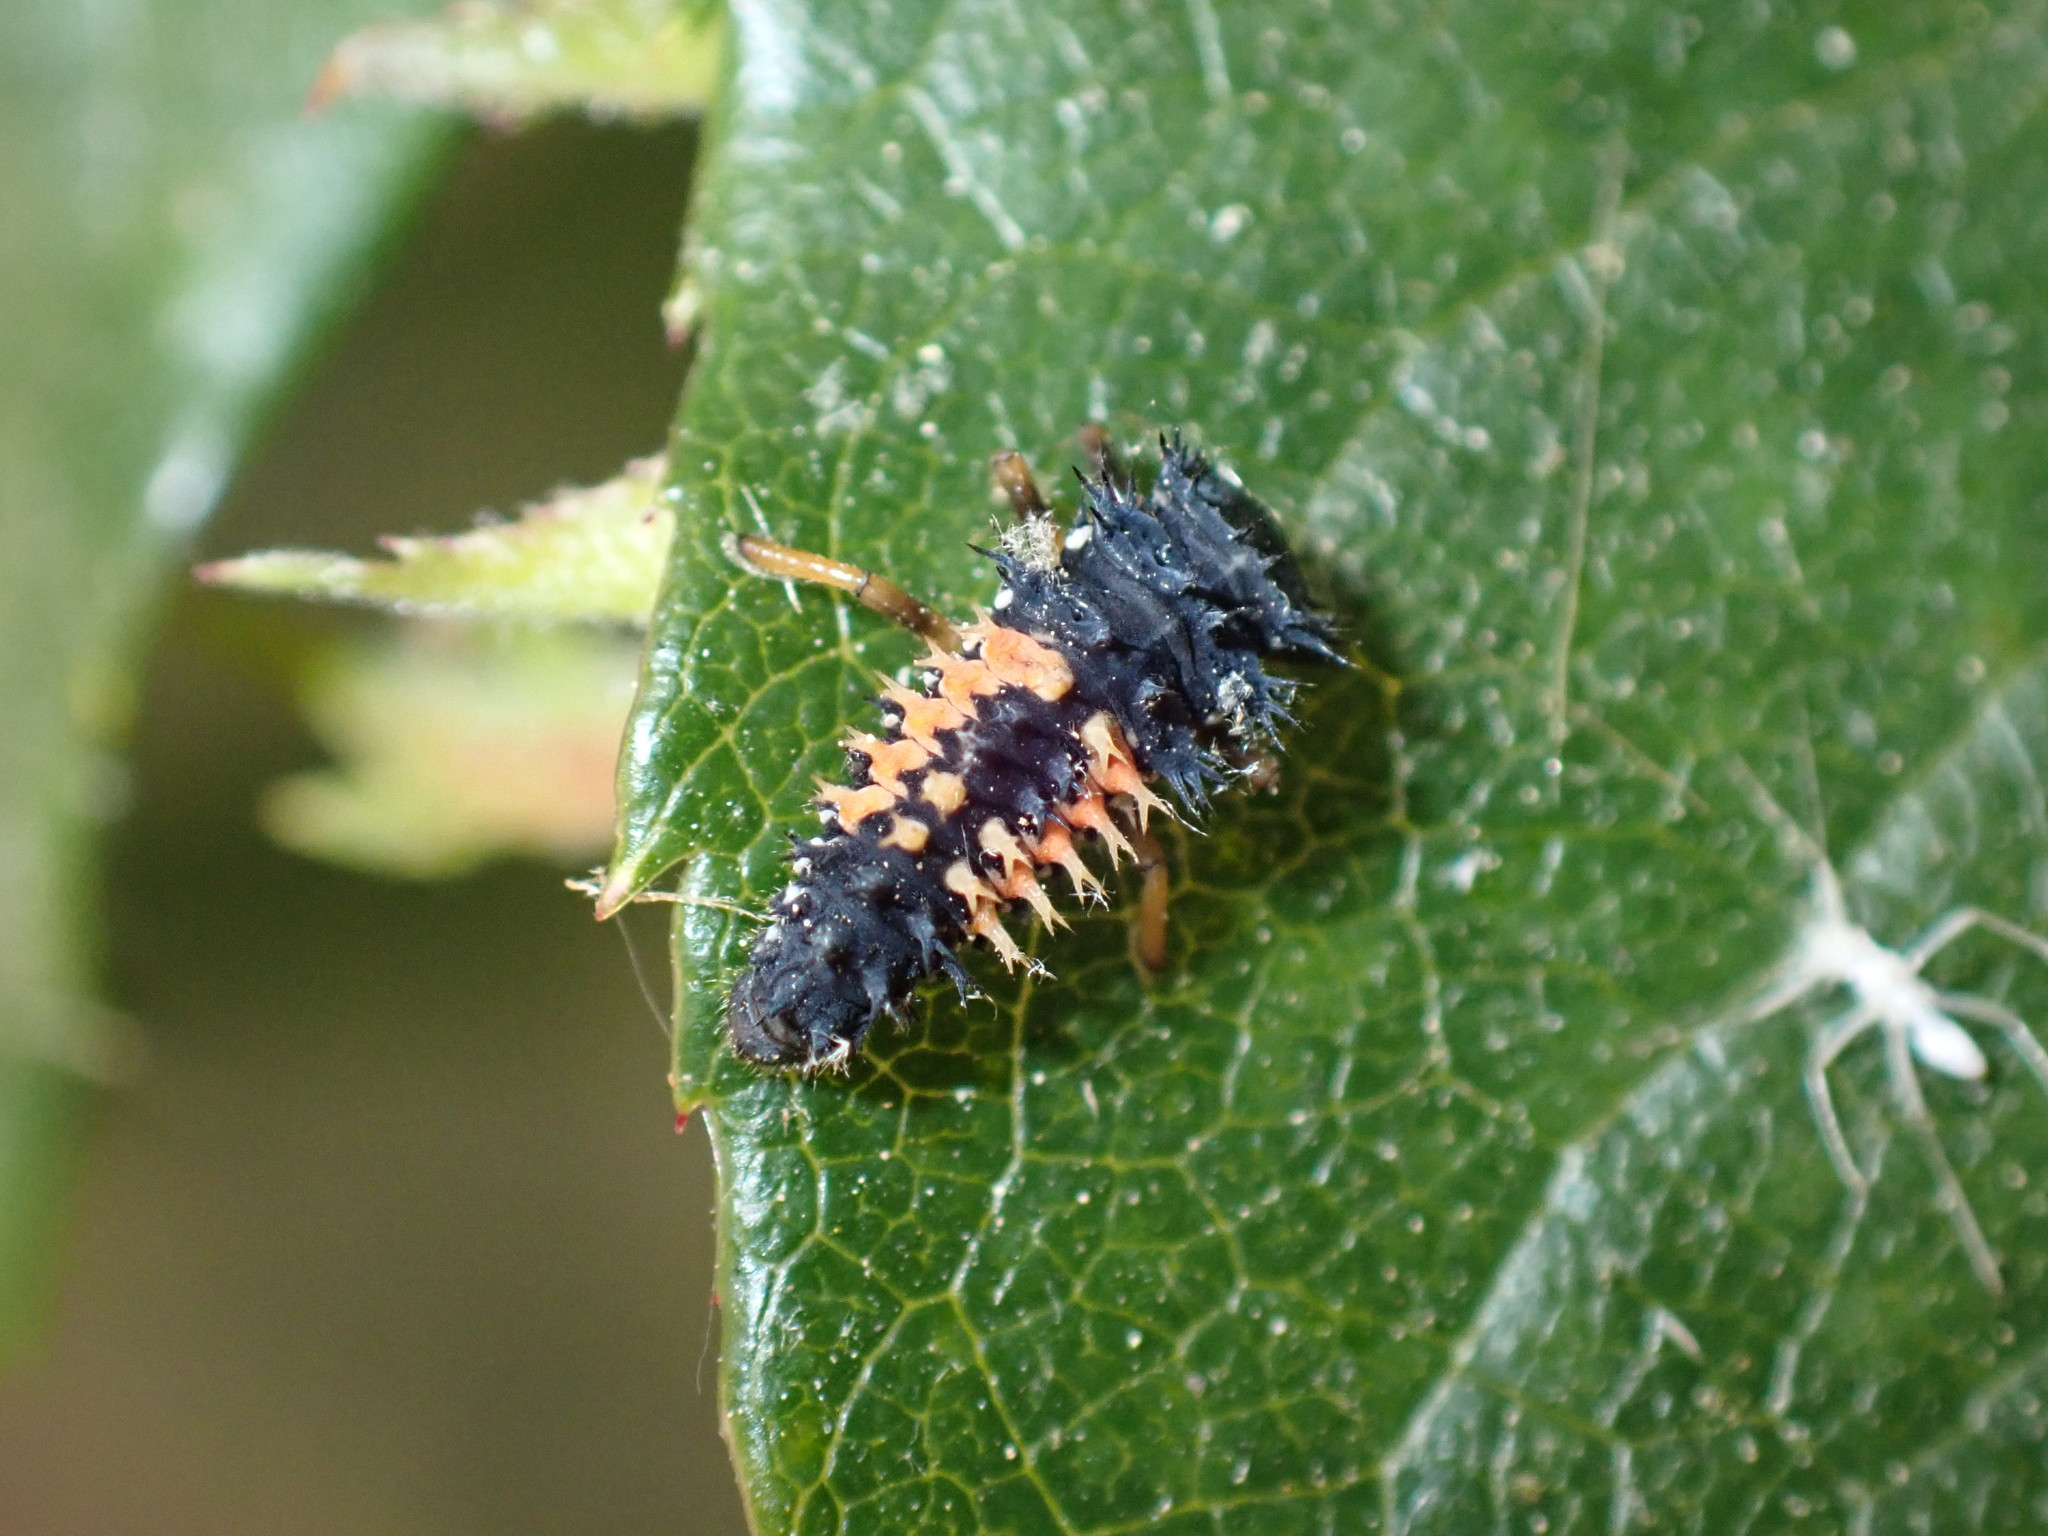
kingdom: Animalia
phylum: Arthropoda
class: Insecta
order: Coleoptera
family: Coccinellidae
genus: Harmonia
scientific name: Harmonia axyridis
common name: Harlequin ladybird
